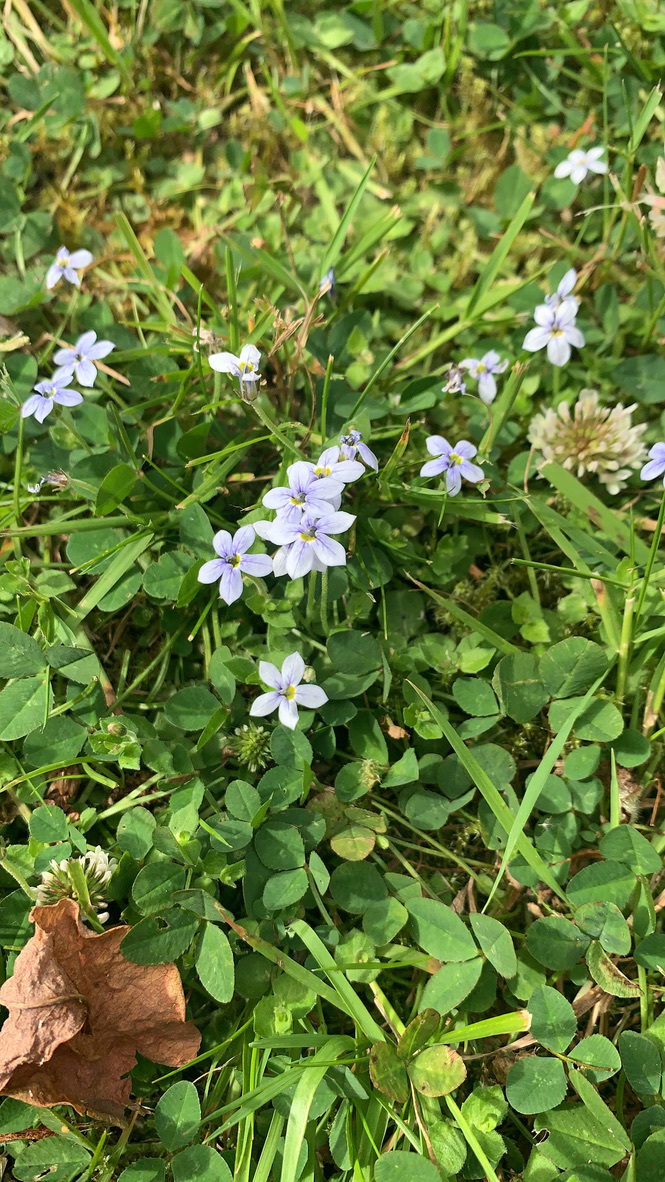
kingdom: Plantae
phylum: Tracheophyta
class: Magnoliopsida
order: Asterales
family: Campanulaceae
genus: Lobelia
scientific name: Lobelia pedunculata
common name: Matted pratia
